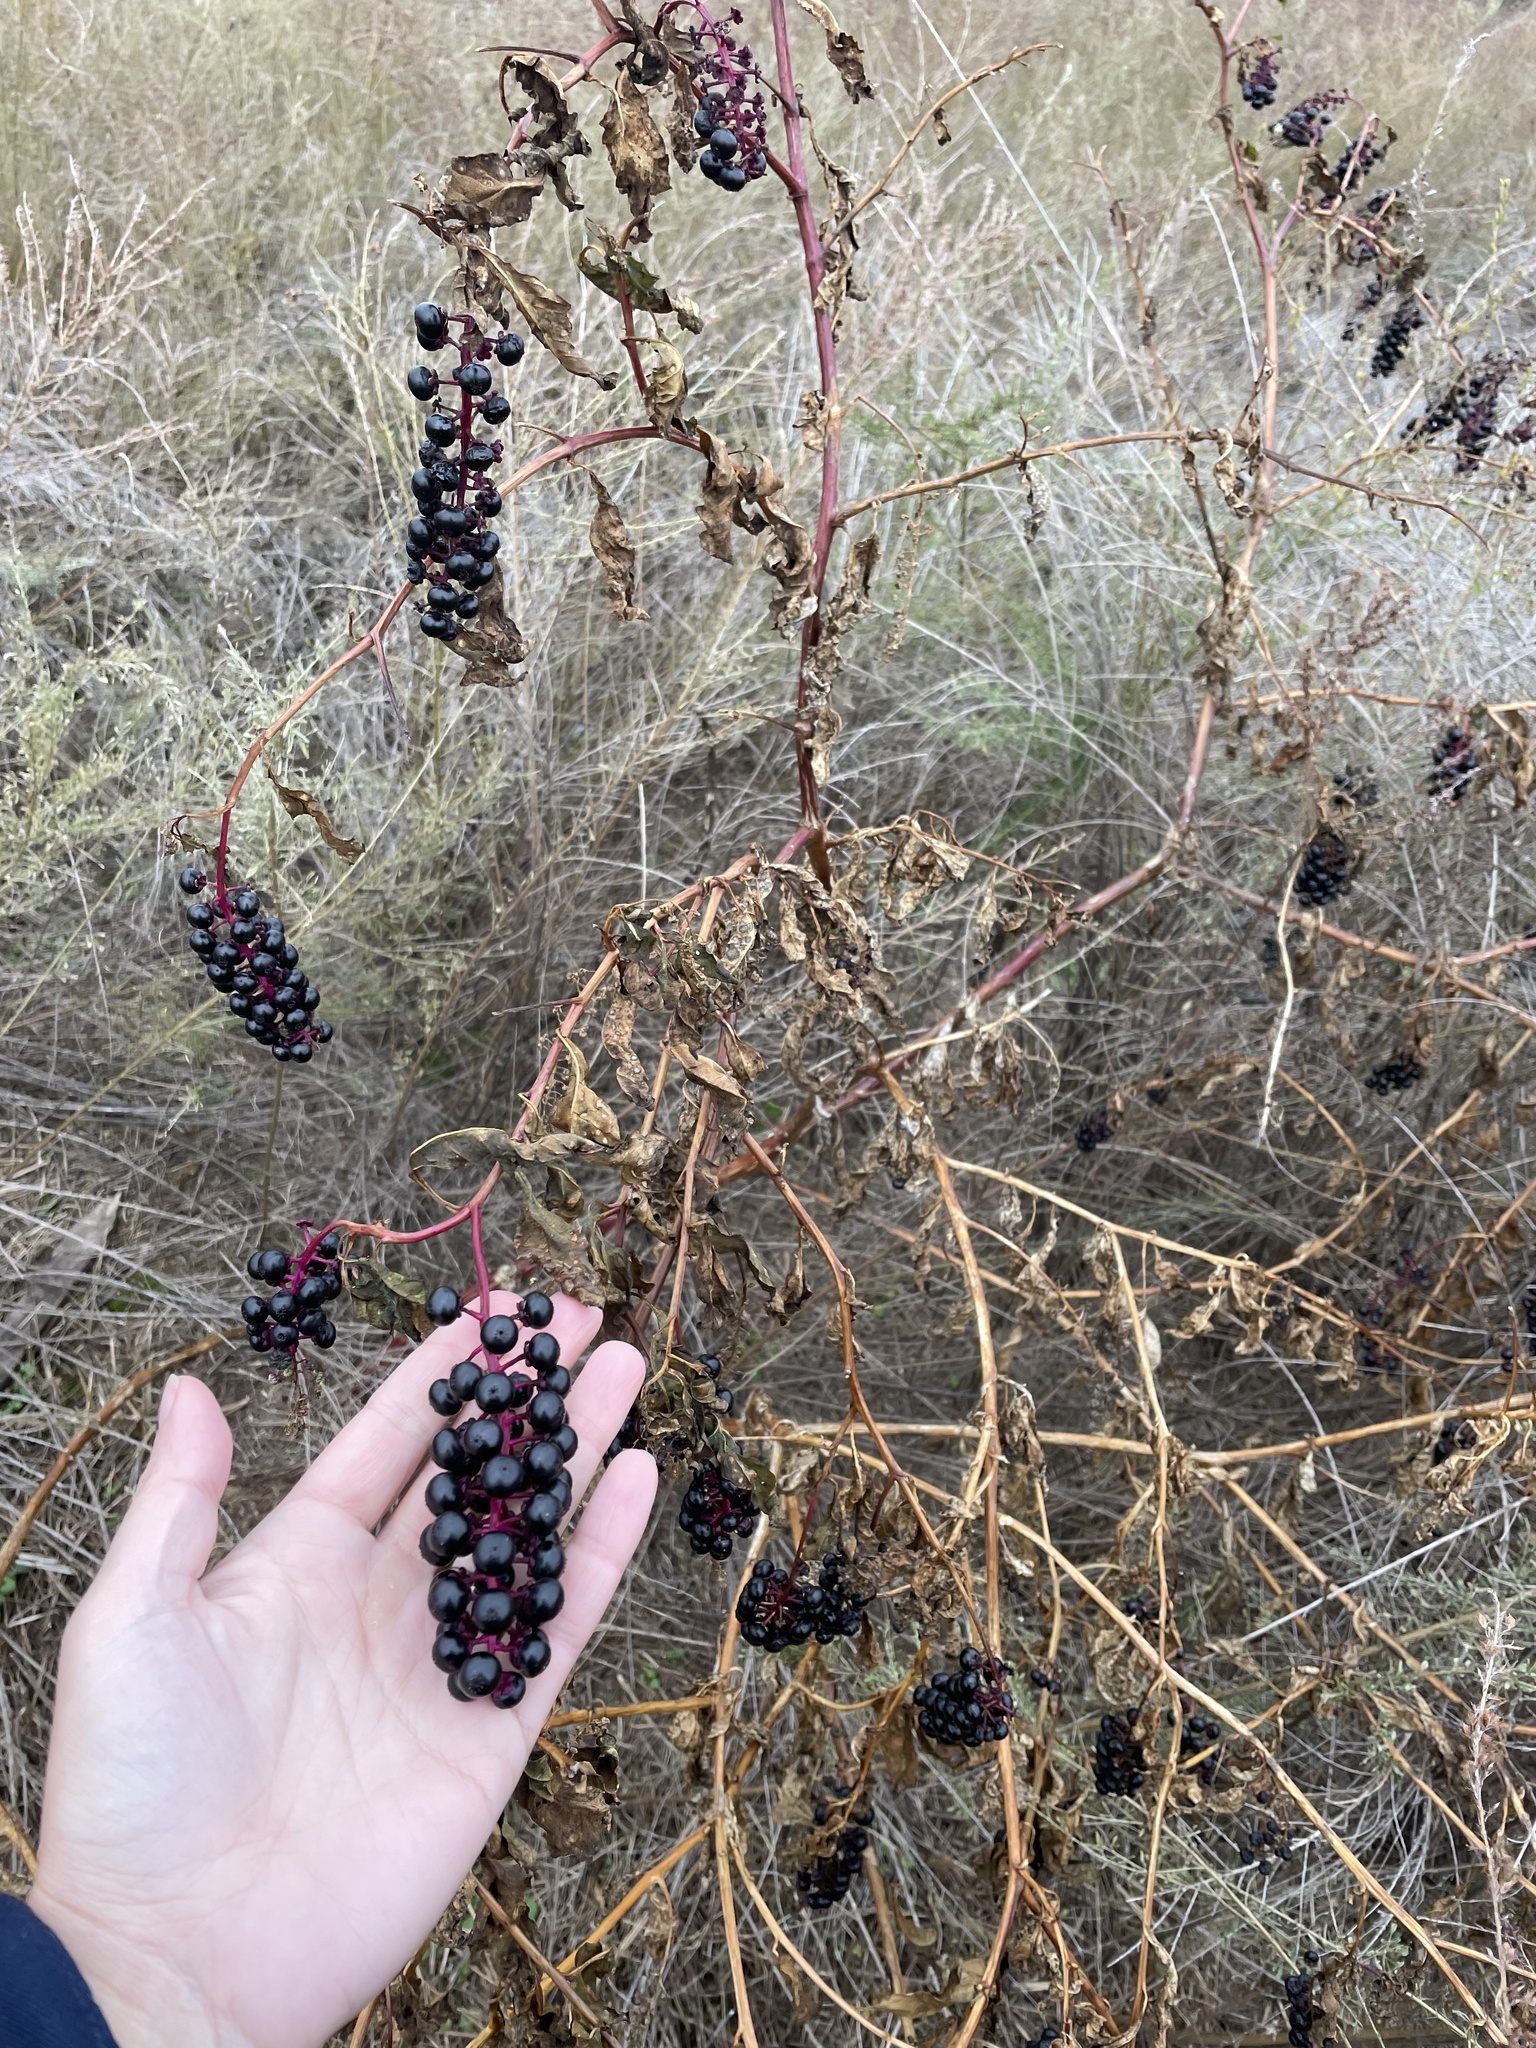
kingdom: Plantae
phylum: Tracheophyta
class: Magnoliopsida
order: Caryophyllales
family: Phytolaccaceae
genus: Phytolacca
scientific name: Phytolacca americana
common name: American pokeweed
